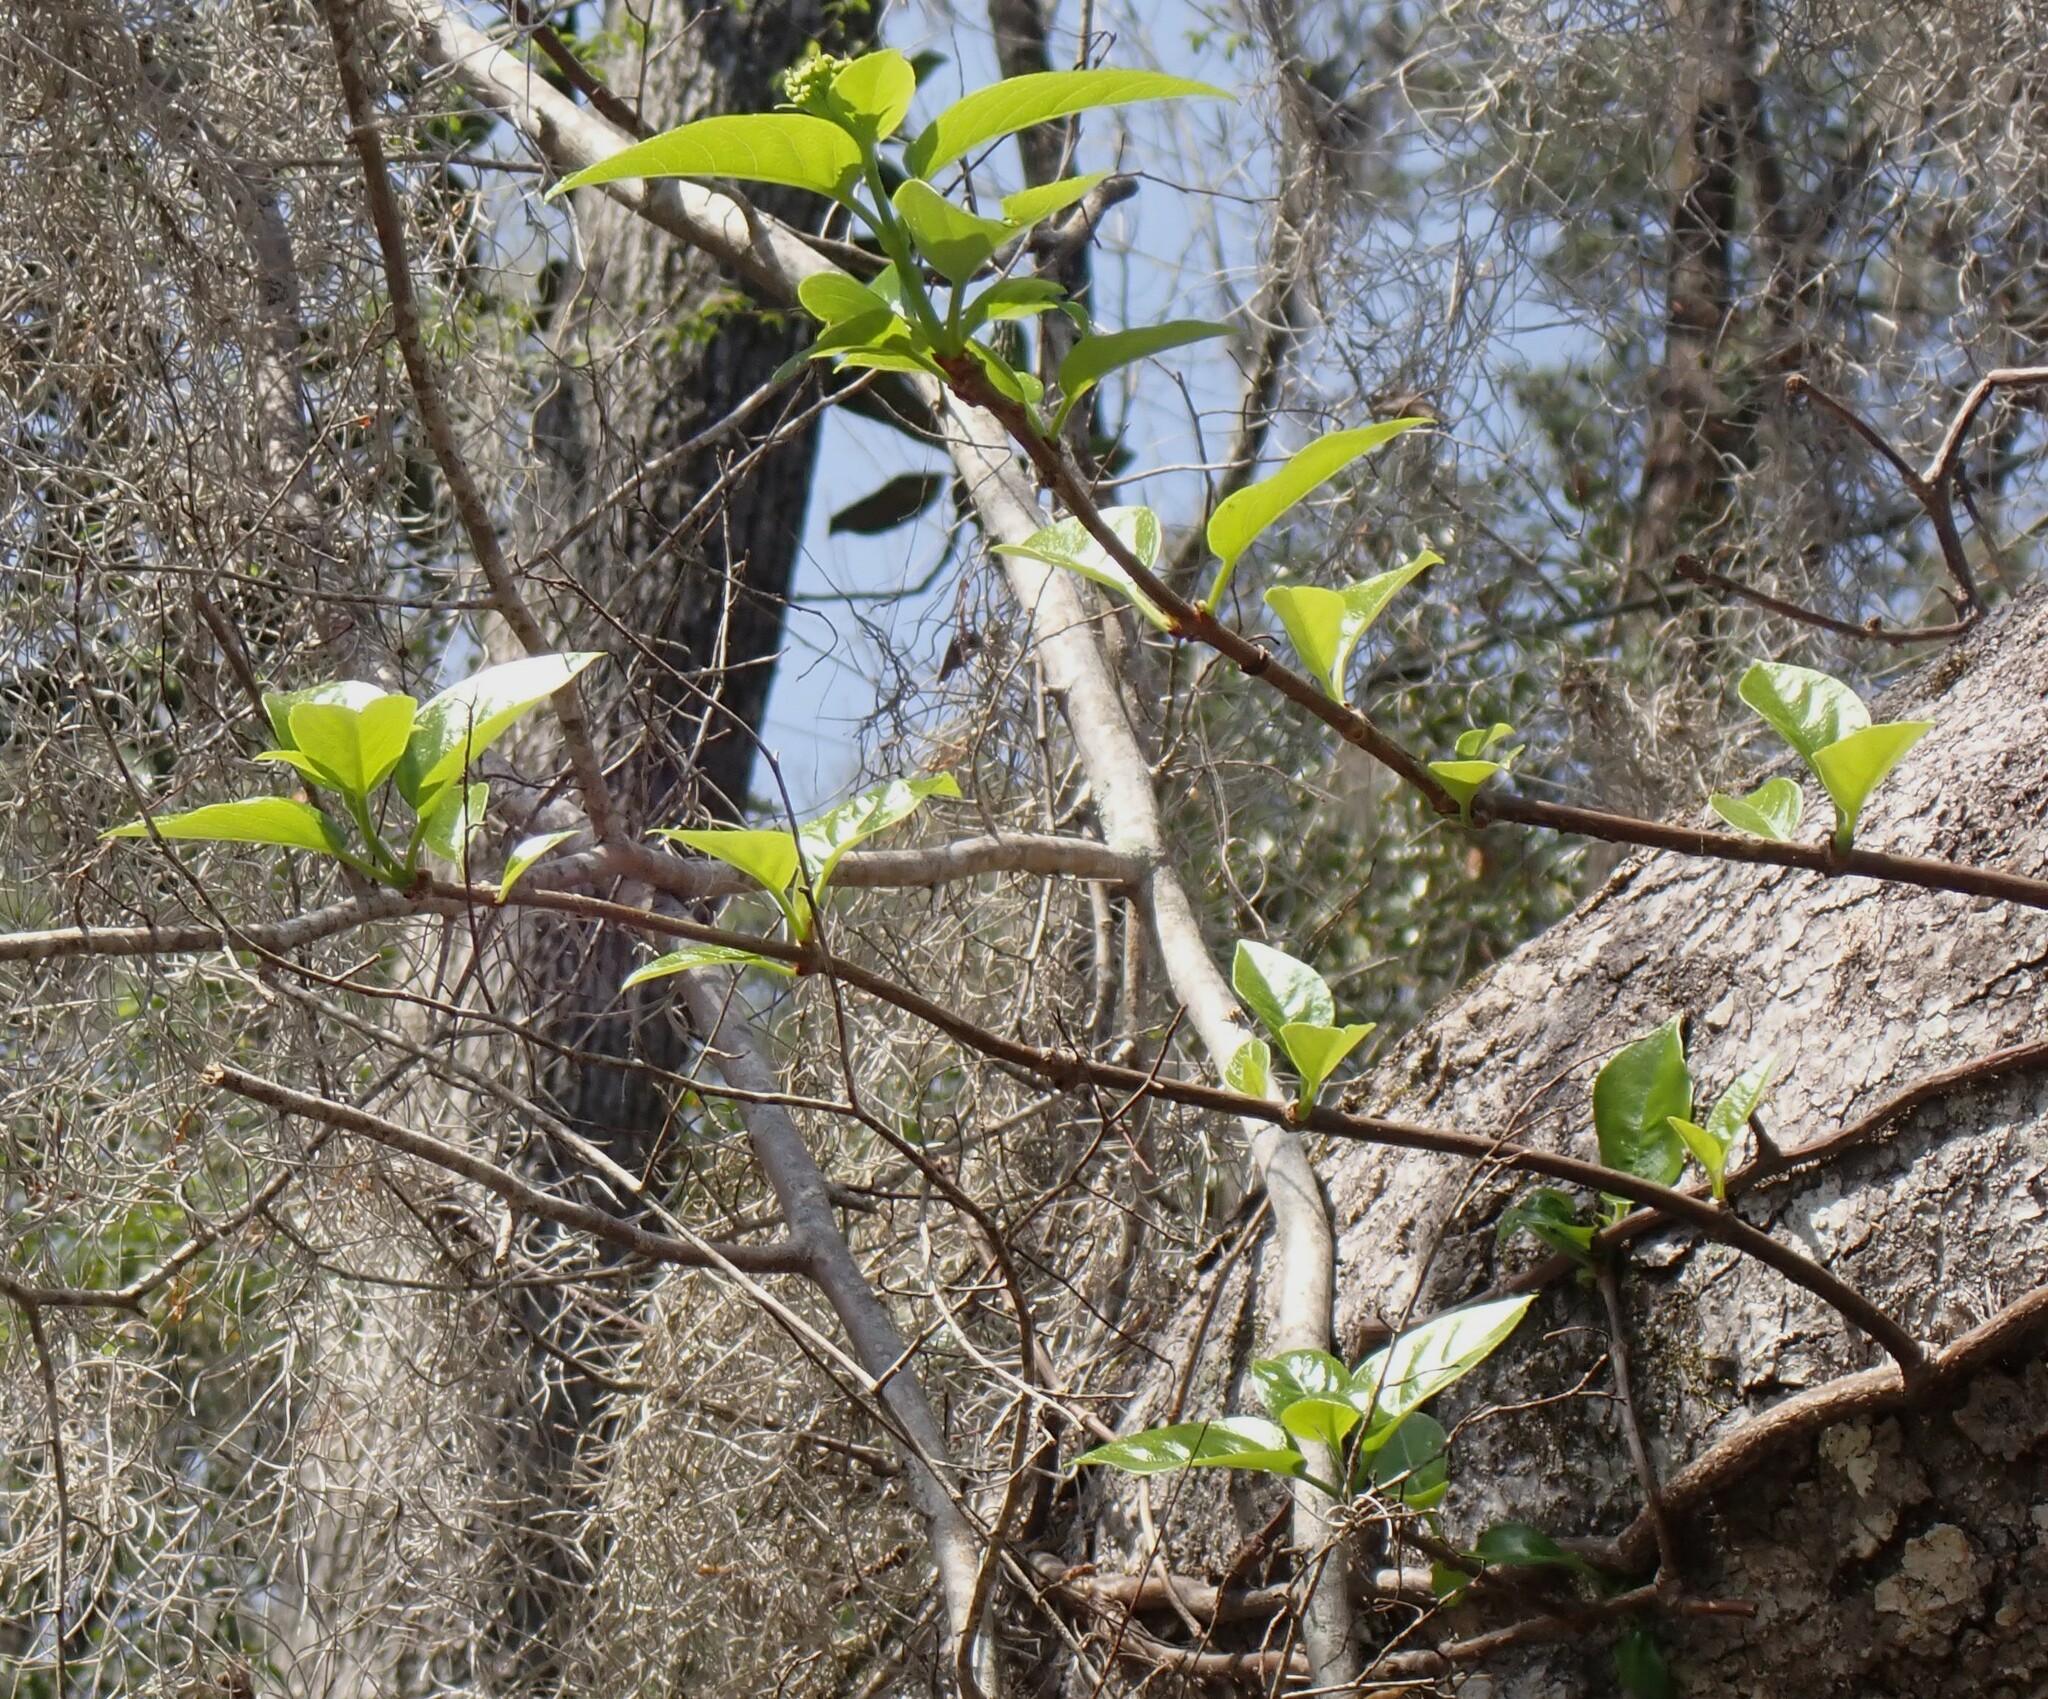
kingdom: Plantae
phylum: Tracheophyta
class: Magnoliopsida
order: Cornales
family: Hydrangeaceae
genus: Hydrangea
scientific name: Hydrangea barbara
